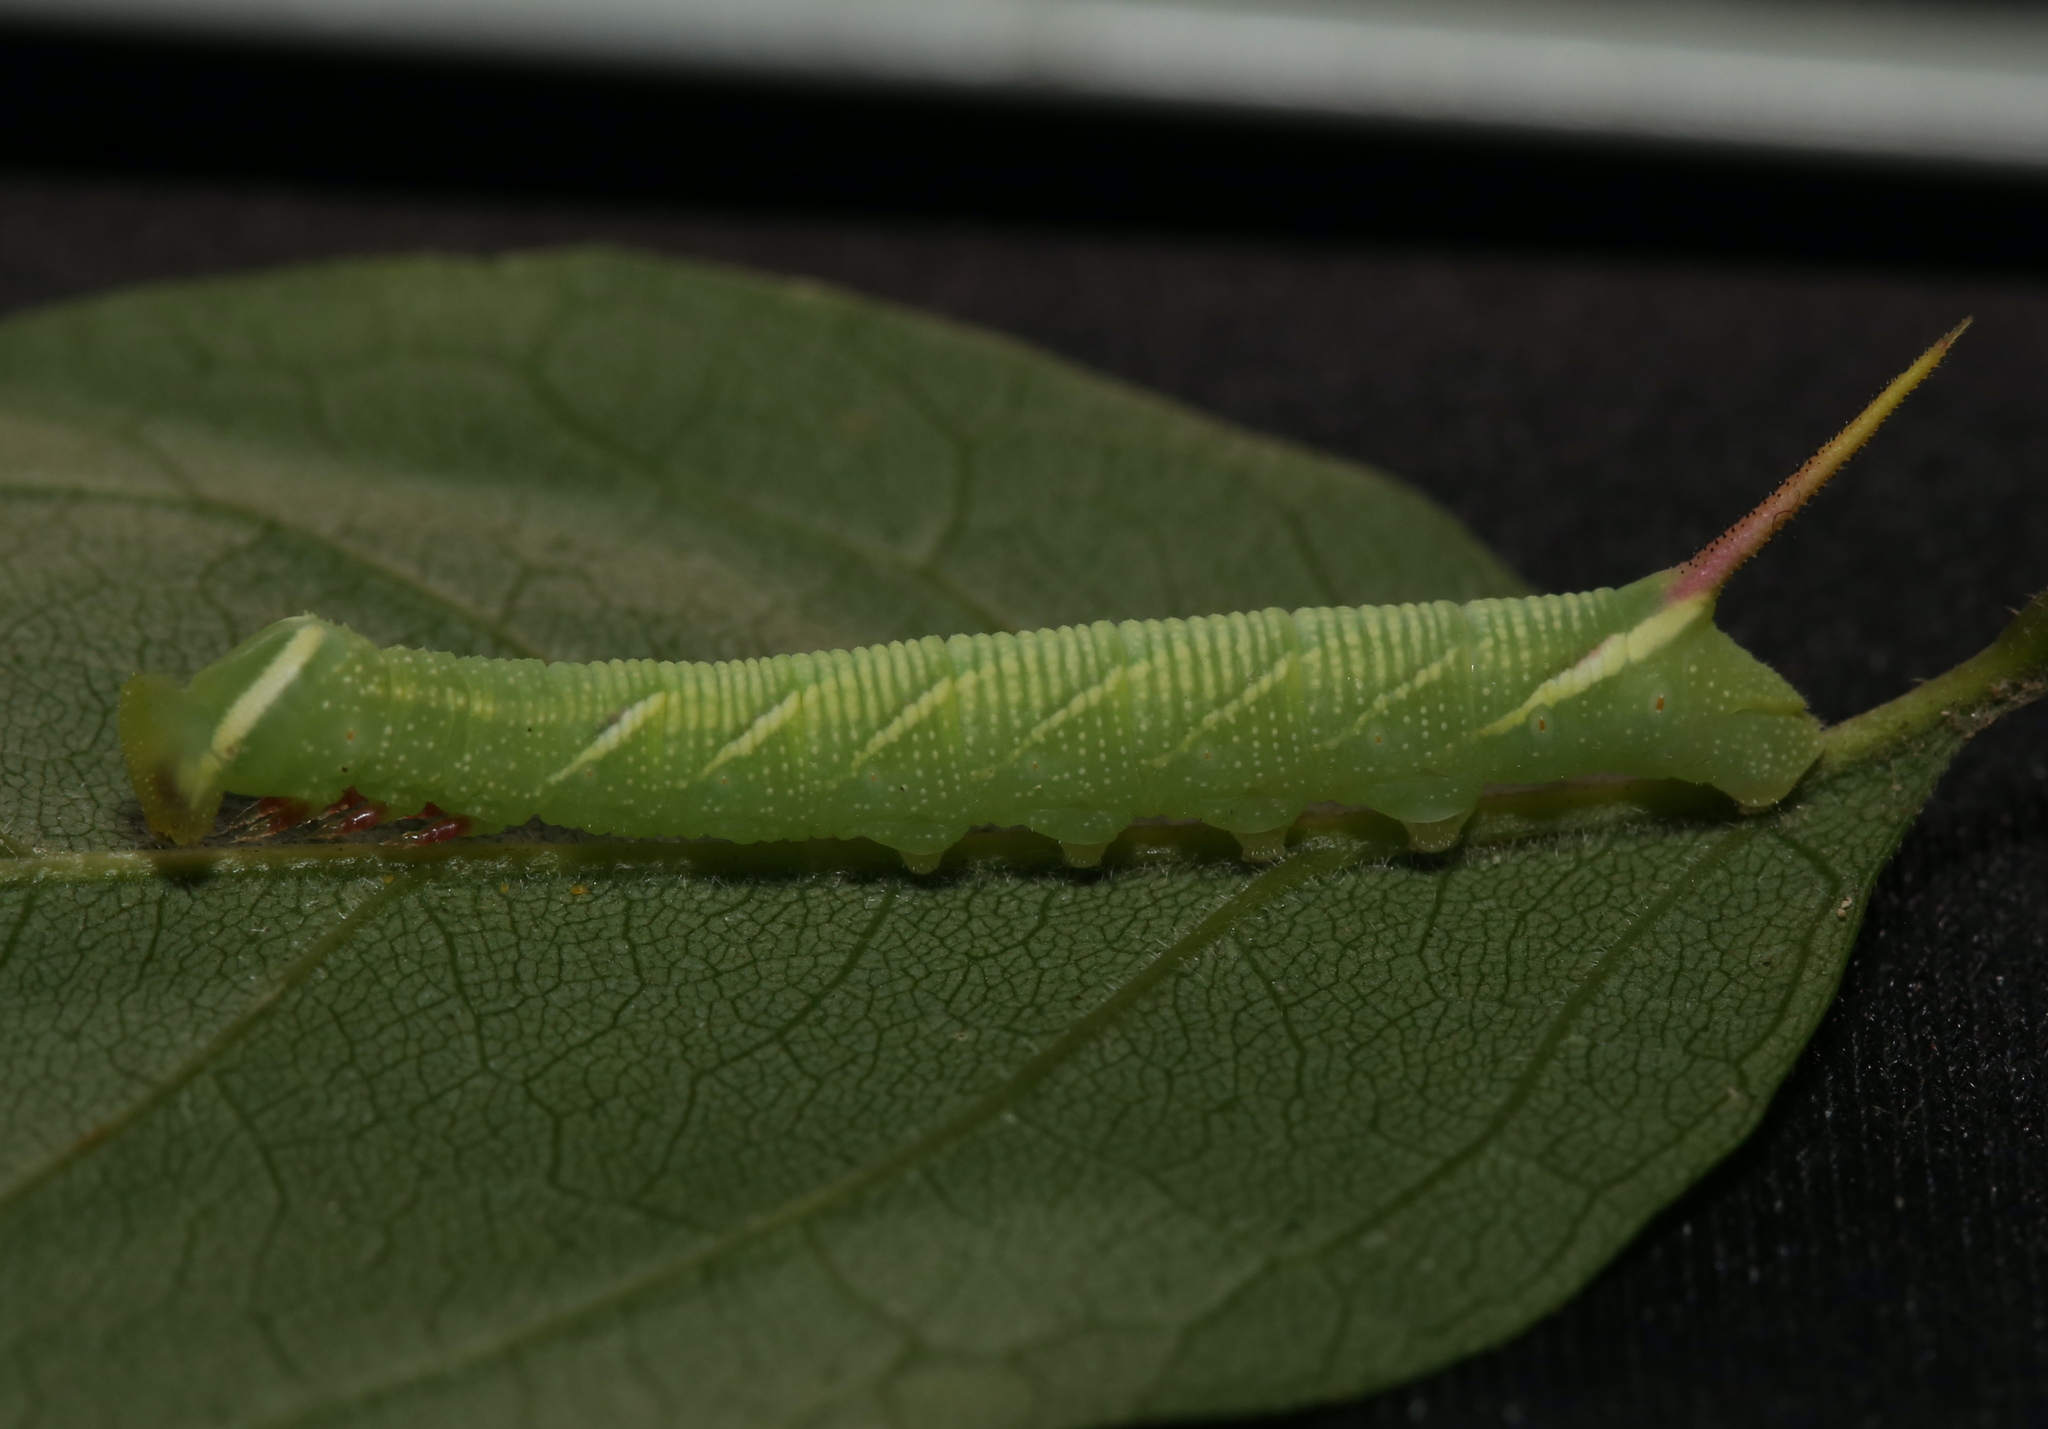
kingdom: Animalia
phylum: Arthropoda
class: Insecta
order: Lepidoptera
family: Sphingidae
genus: Ceratomia
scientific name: Ceratomia undulosa
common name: Waved sphinx
